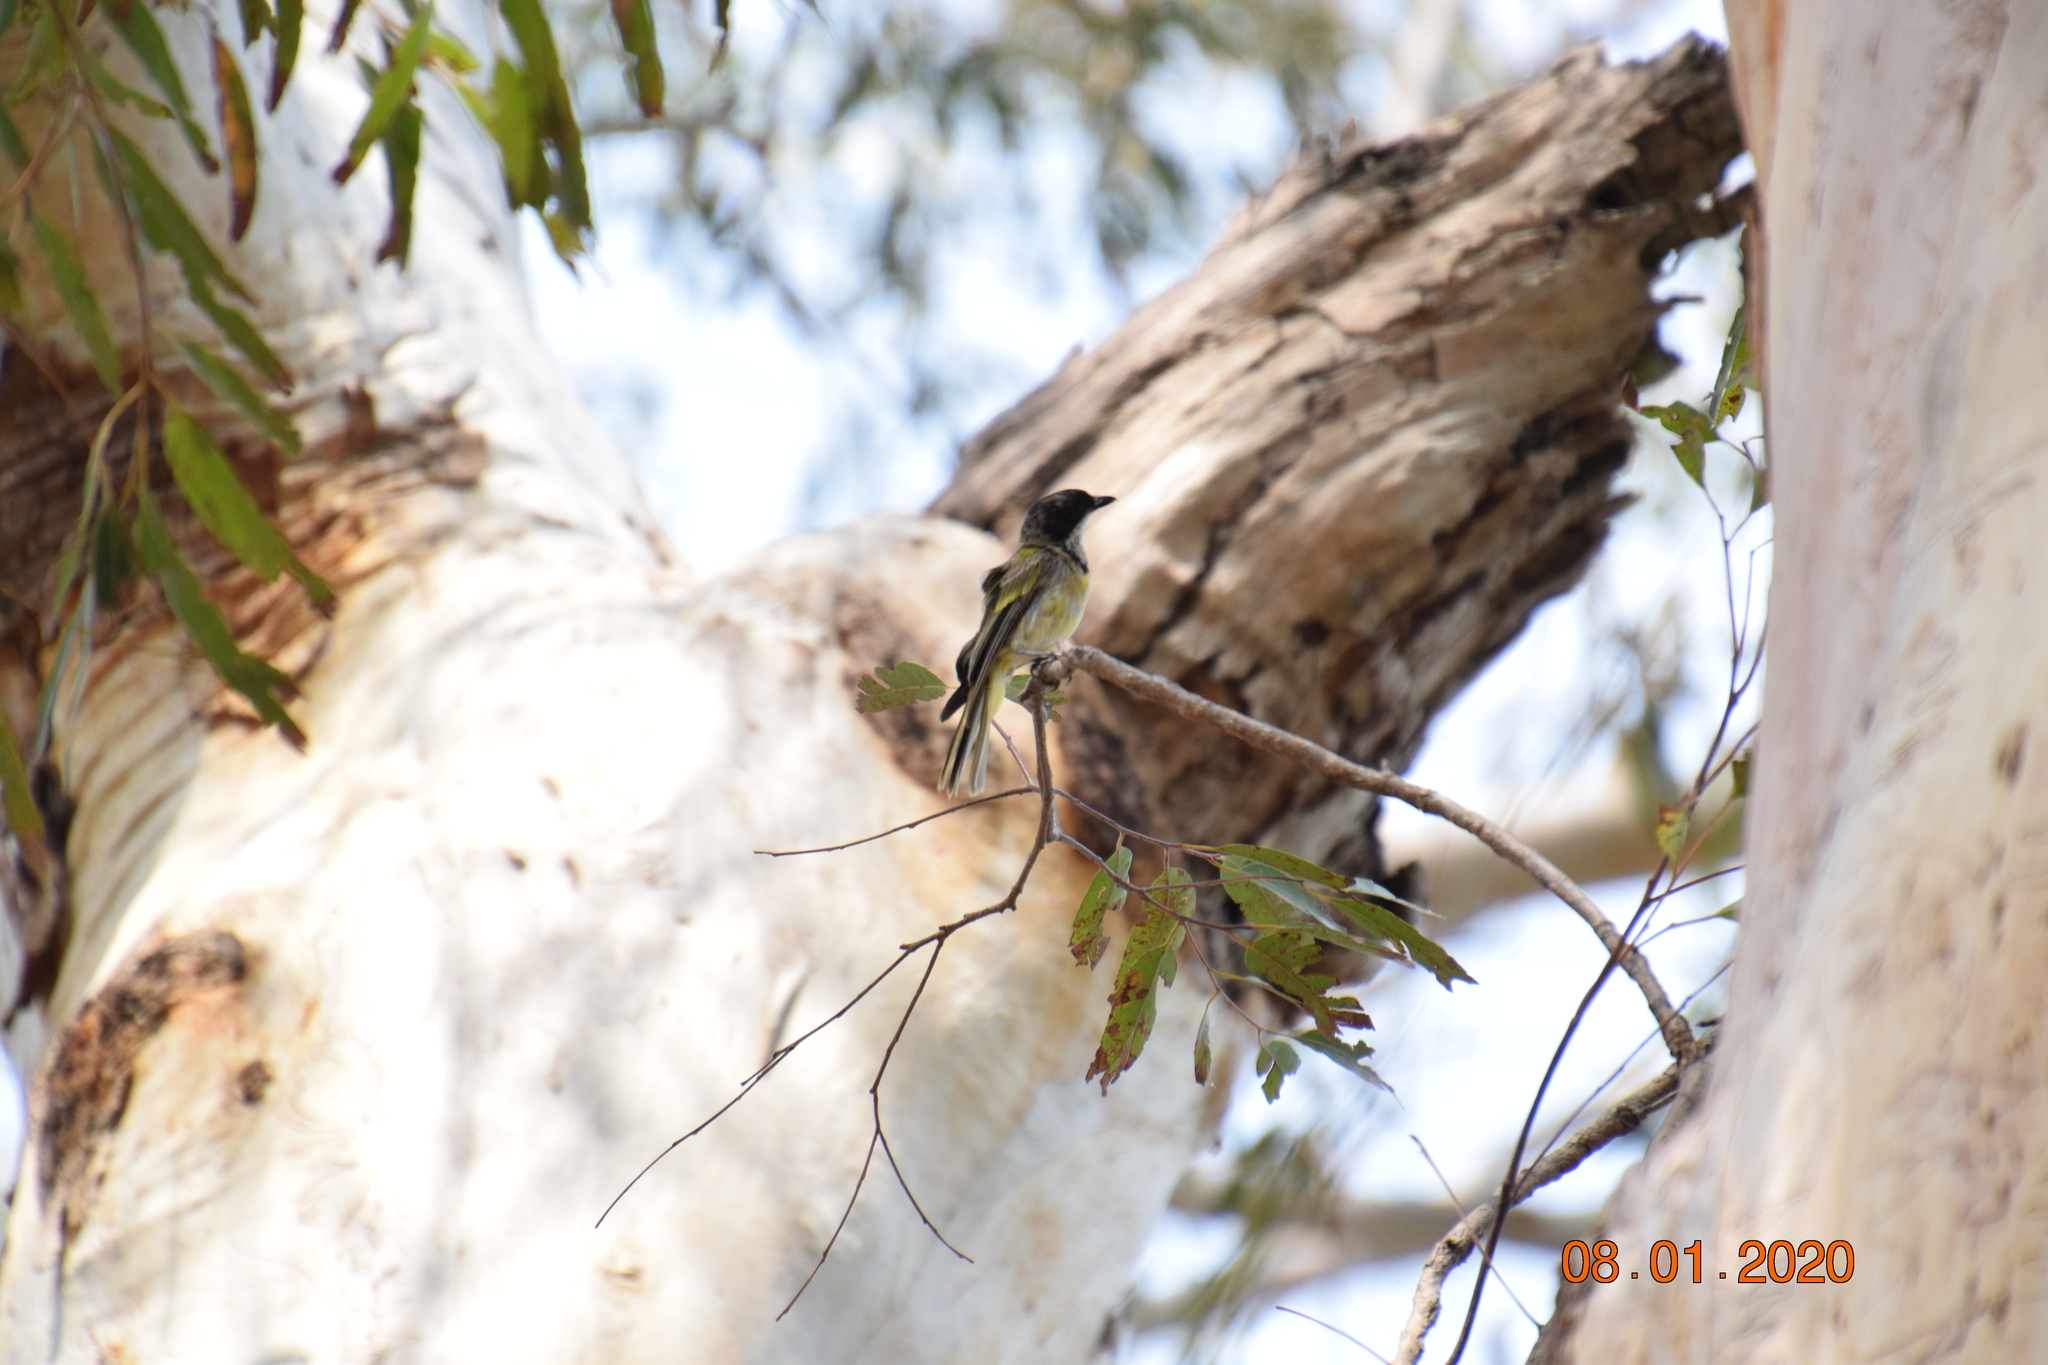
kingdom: Animalia
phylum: Chordata
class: Aves
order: Passeriformes
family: Pachycephalidae
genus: Pachycephala
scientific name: Pachycephala pectoralis
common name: Australian golden whistler
